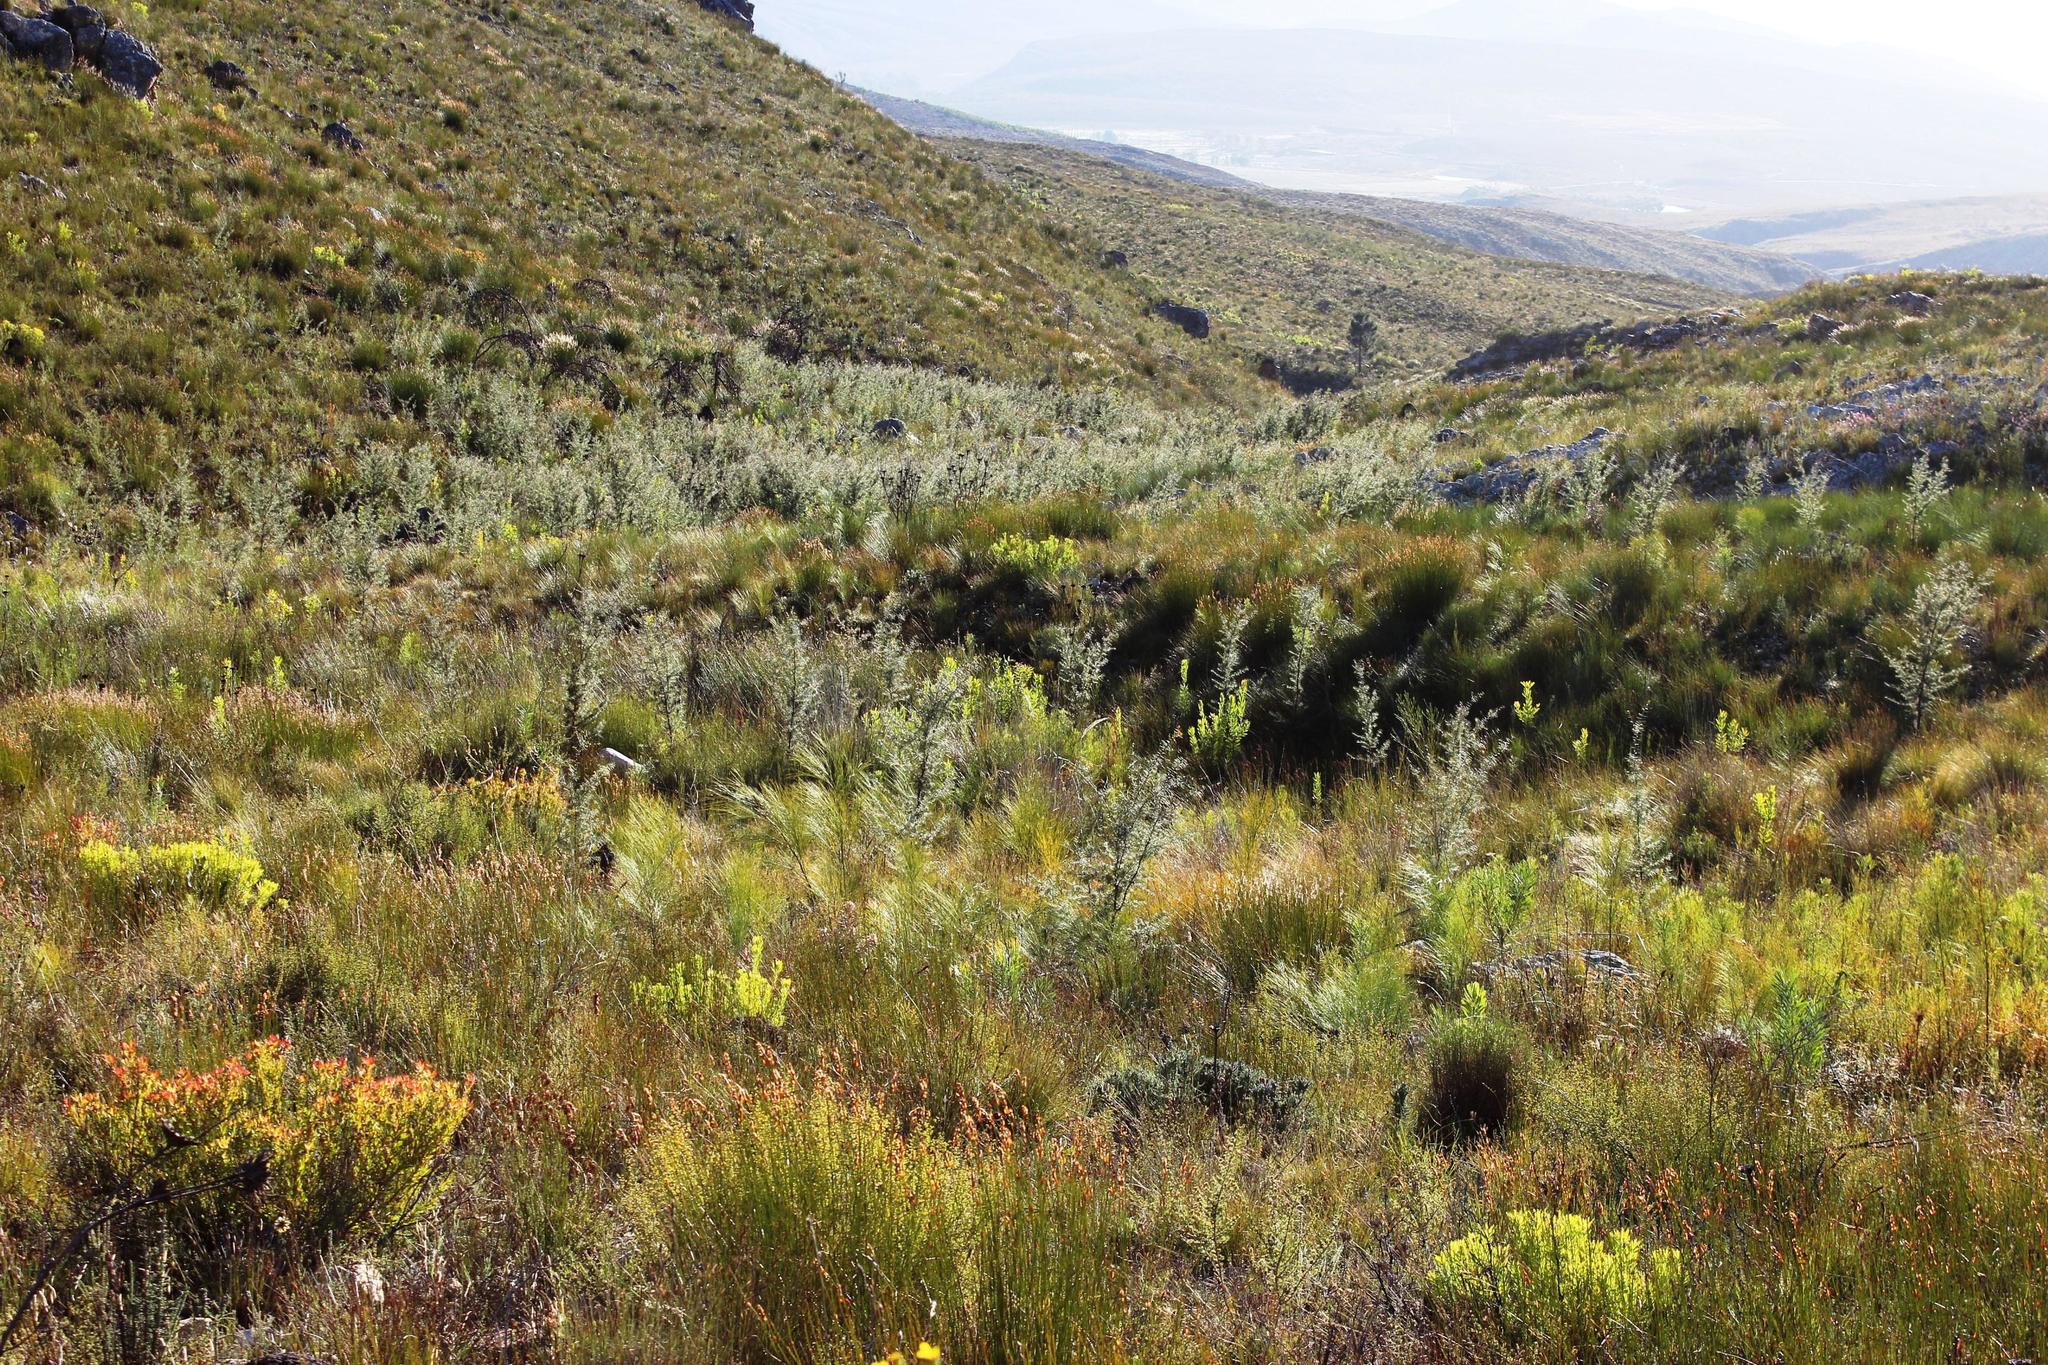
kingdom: Plantae
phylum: Tracheophyta
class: Magnoliopsida
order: Proteales
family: Proteaceae
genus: Hakea
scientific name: Hakea sericea
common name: Needle bush
